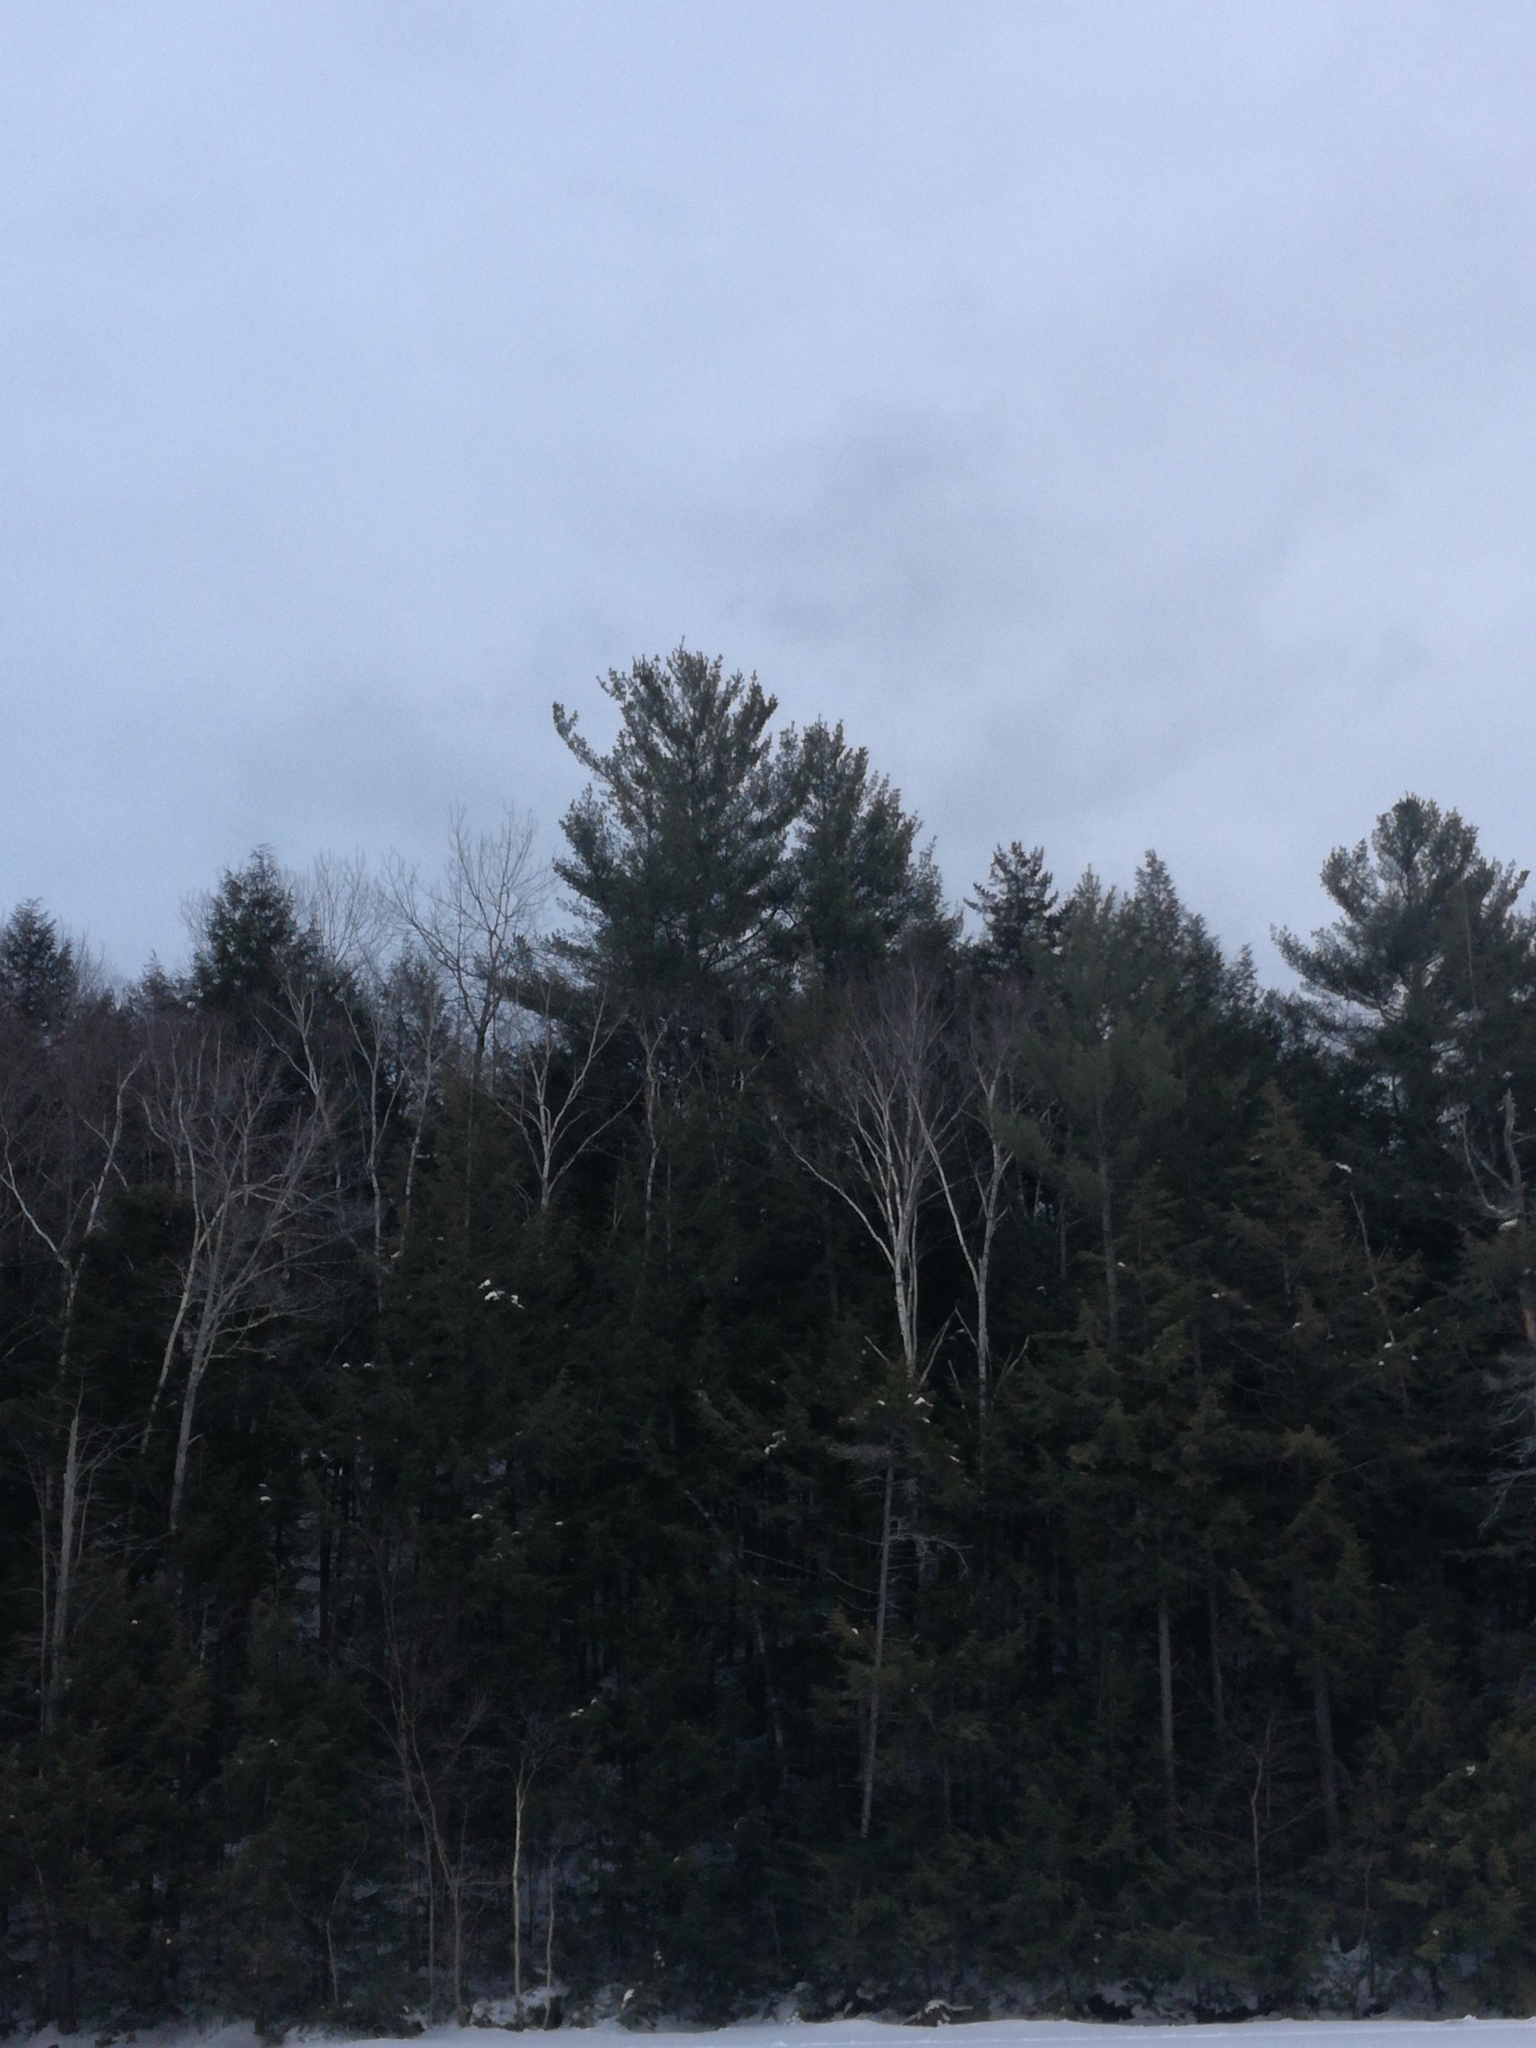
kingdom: Plantae
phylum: Tracheophyta
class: Pinopsida
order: Pinales
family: Pinaceae
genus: Pinus
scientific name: Pinus strobus
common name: Weymouth pine
